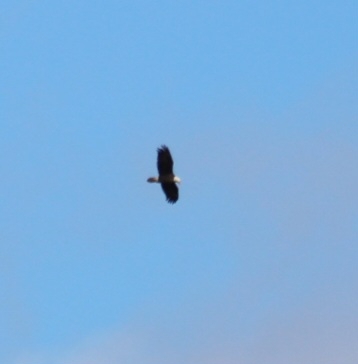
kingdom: Animalia
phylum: Chordata
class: Aves
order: Accipitriformes
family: Accipitridae
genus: Haliaeetus
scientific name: Haliaeetus leucocephalus
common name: Bald eagle
